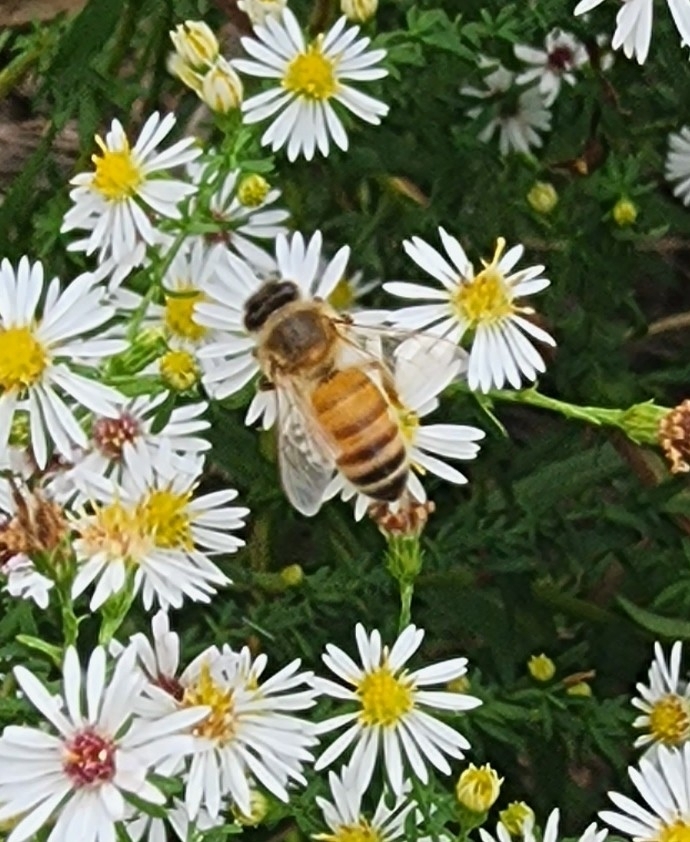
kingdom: Animalia
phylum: Arthropoda
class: Insecta
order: Hymenoptera
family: Apidae
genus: Apis
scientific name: Apis mellifera
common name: Honey bee
